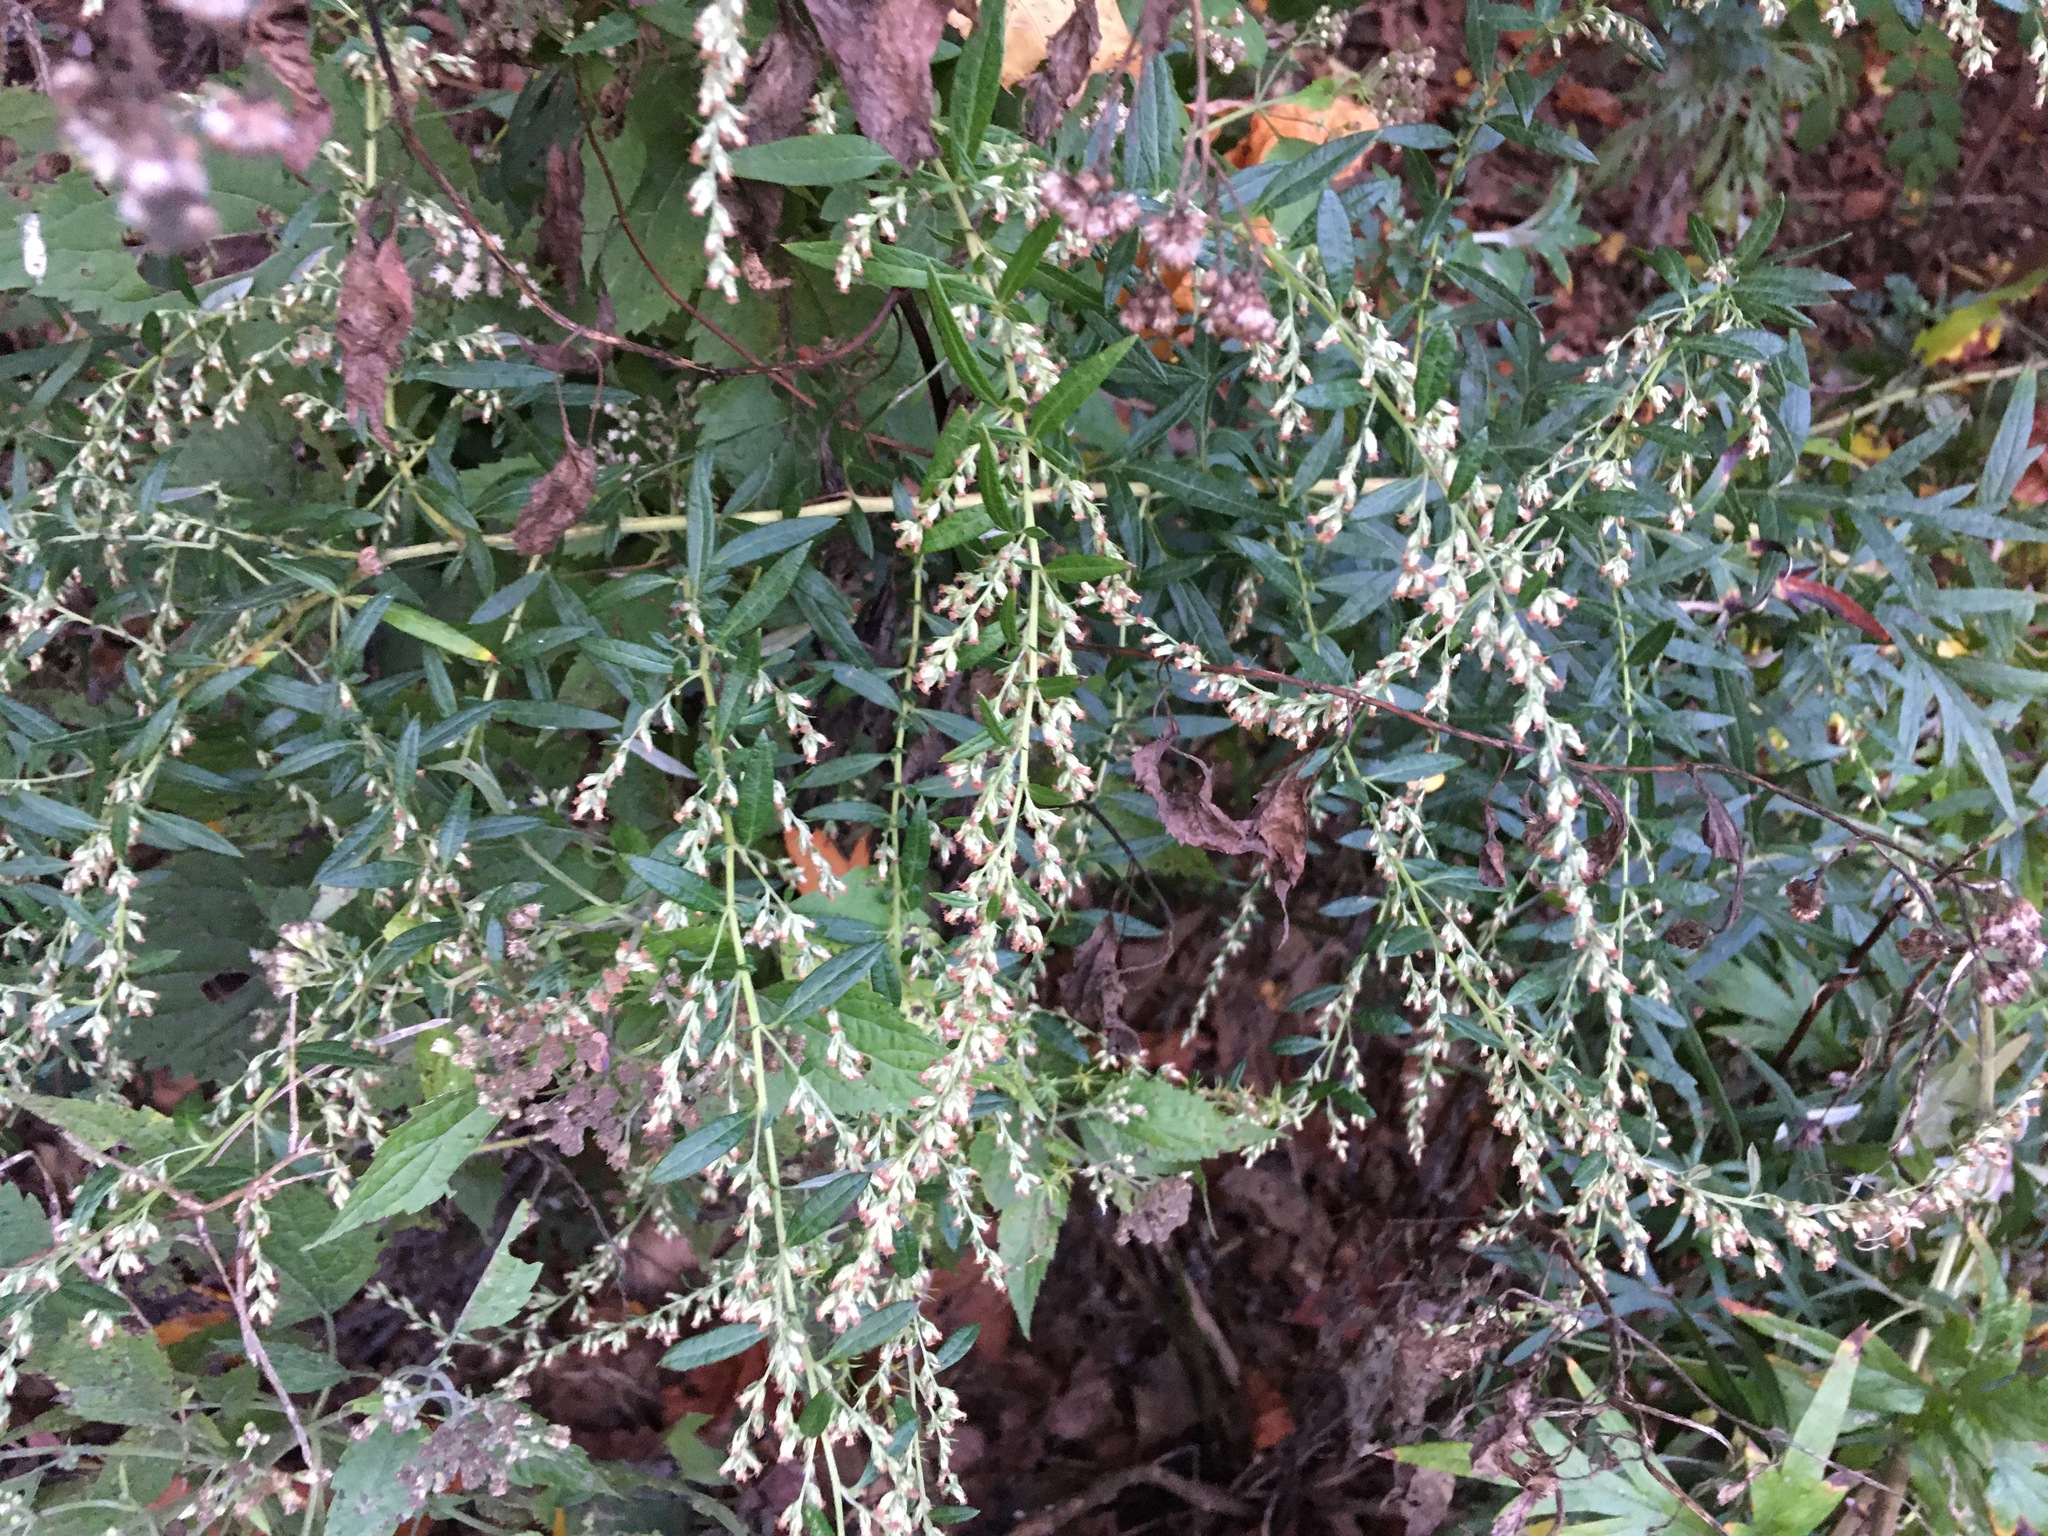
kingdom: Plantae
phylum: Tracheophyta
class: Magnoliopsida
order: Asterales
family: Asteraceae
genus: Artemisia
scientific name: Artemisia vulgaris
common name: Mugwort
